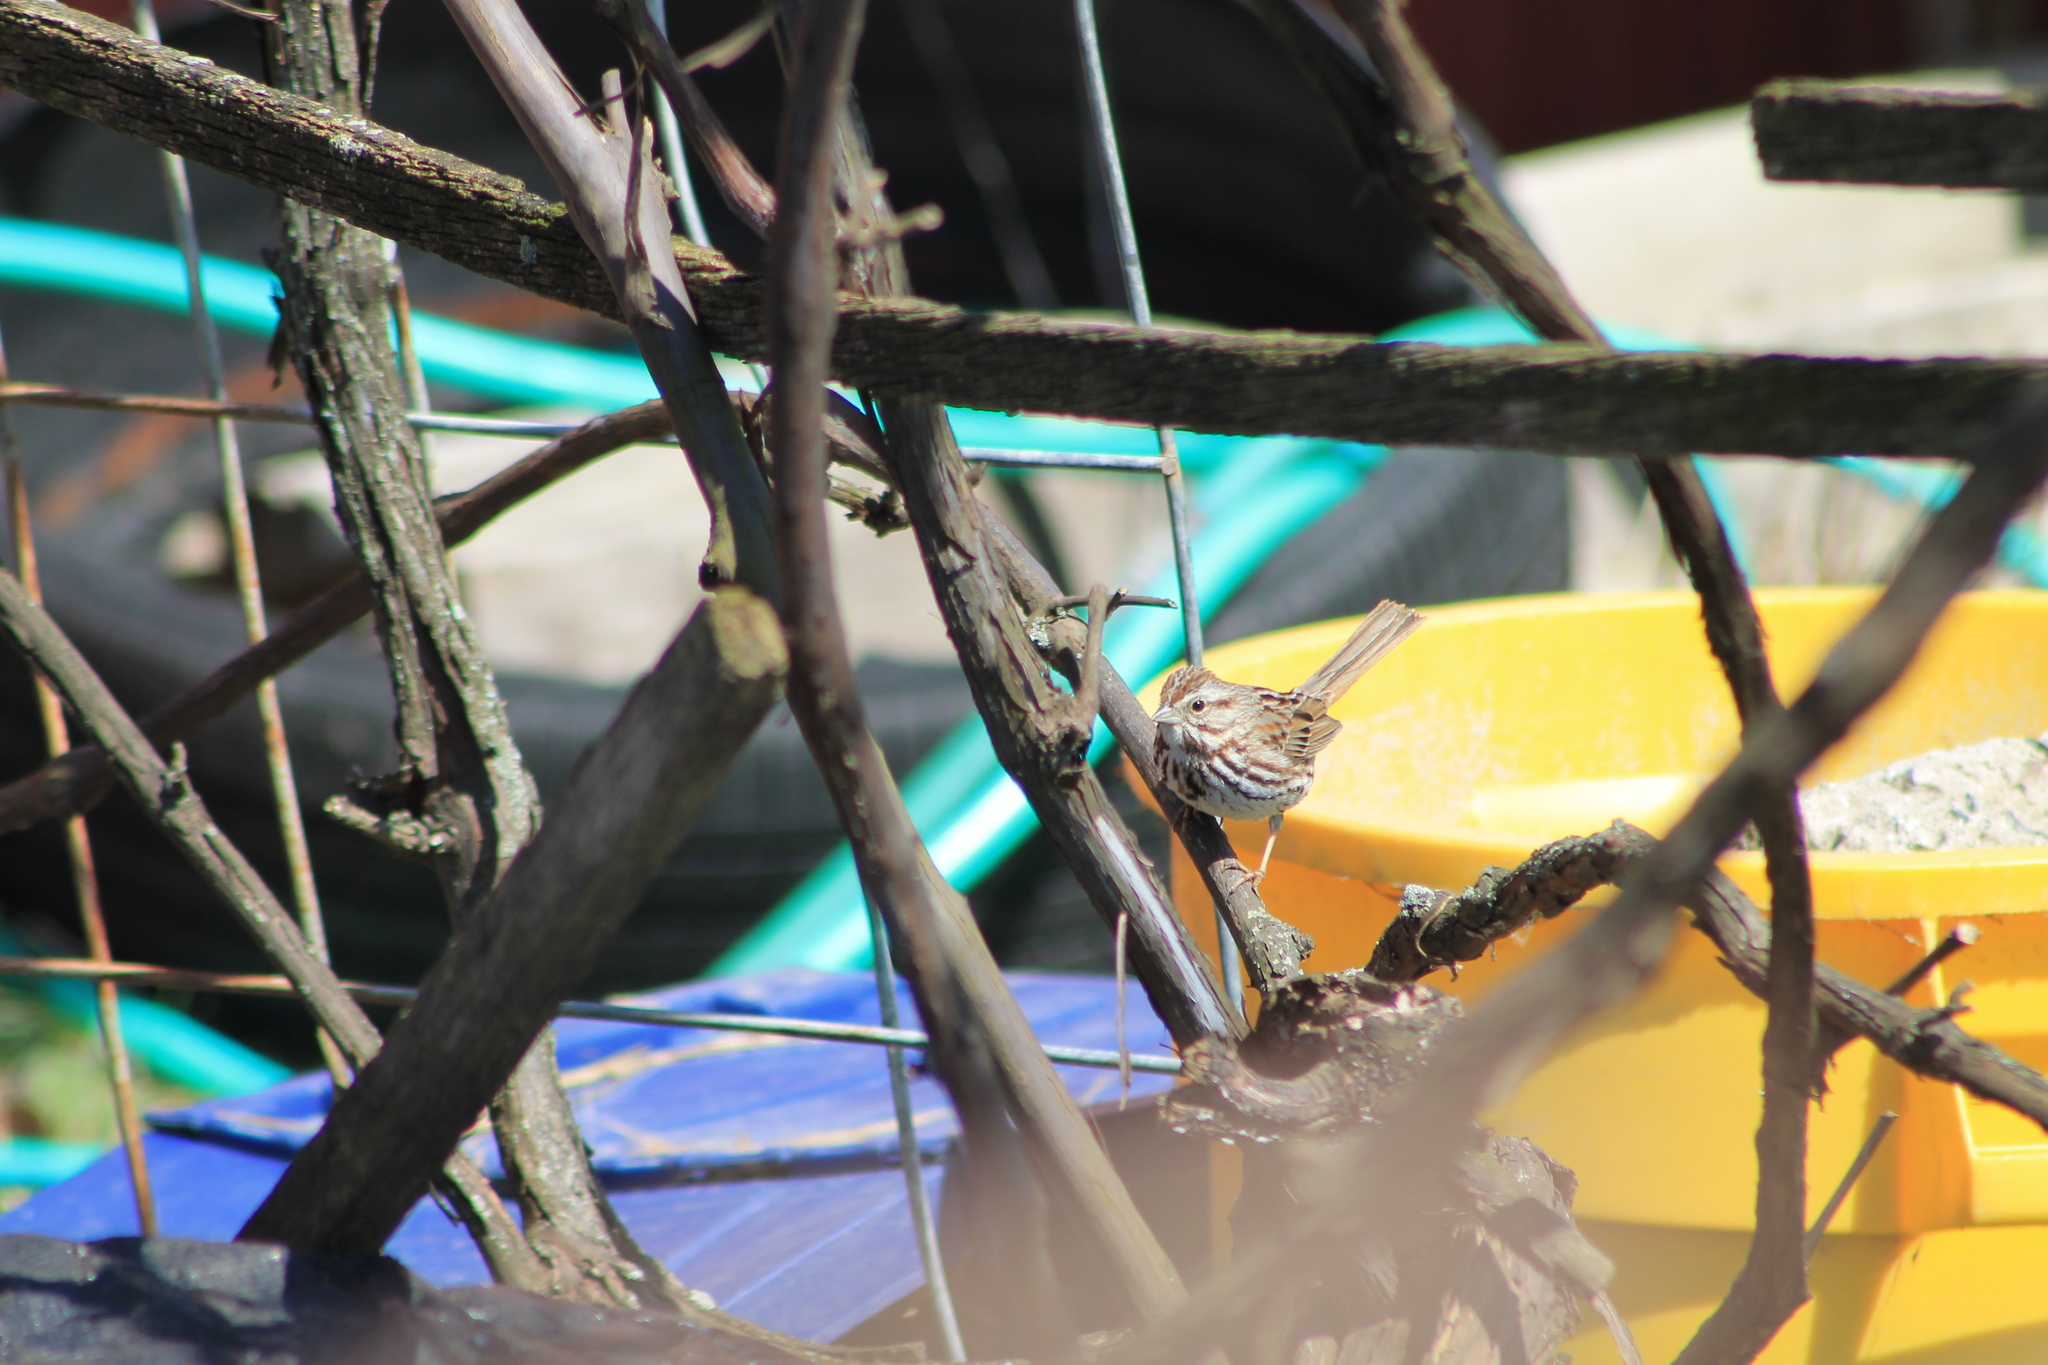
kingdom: Animalia
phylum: Chordata
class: Aves
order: Passeriformes
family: Passerellidae
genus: Melospiza
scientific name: Melospiza melodia
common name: Song sparrow
